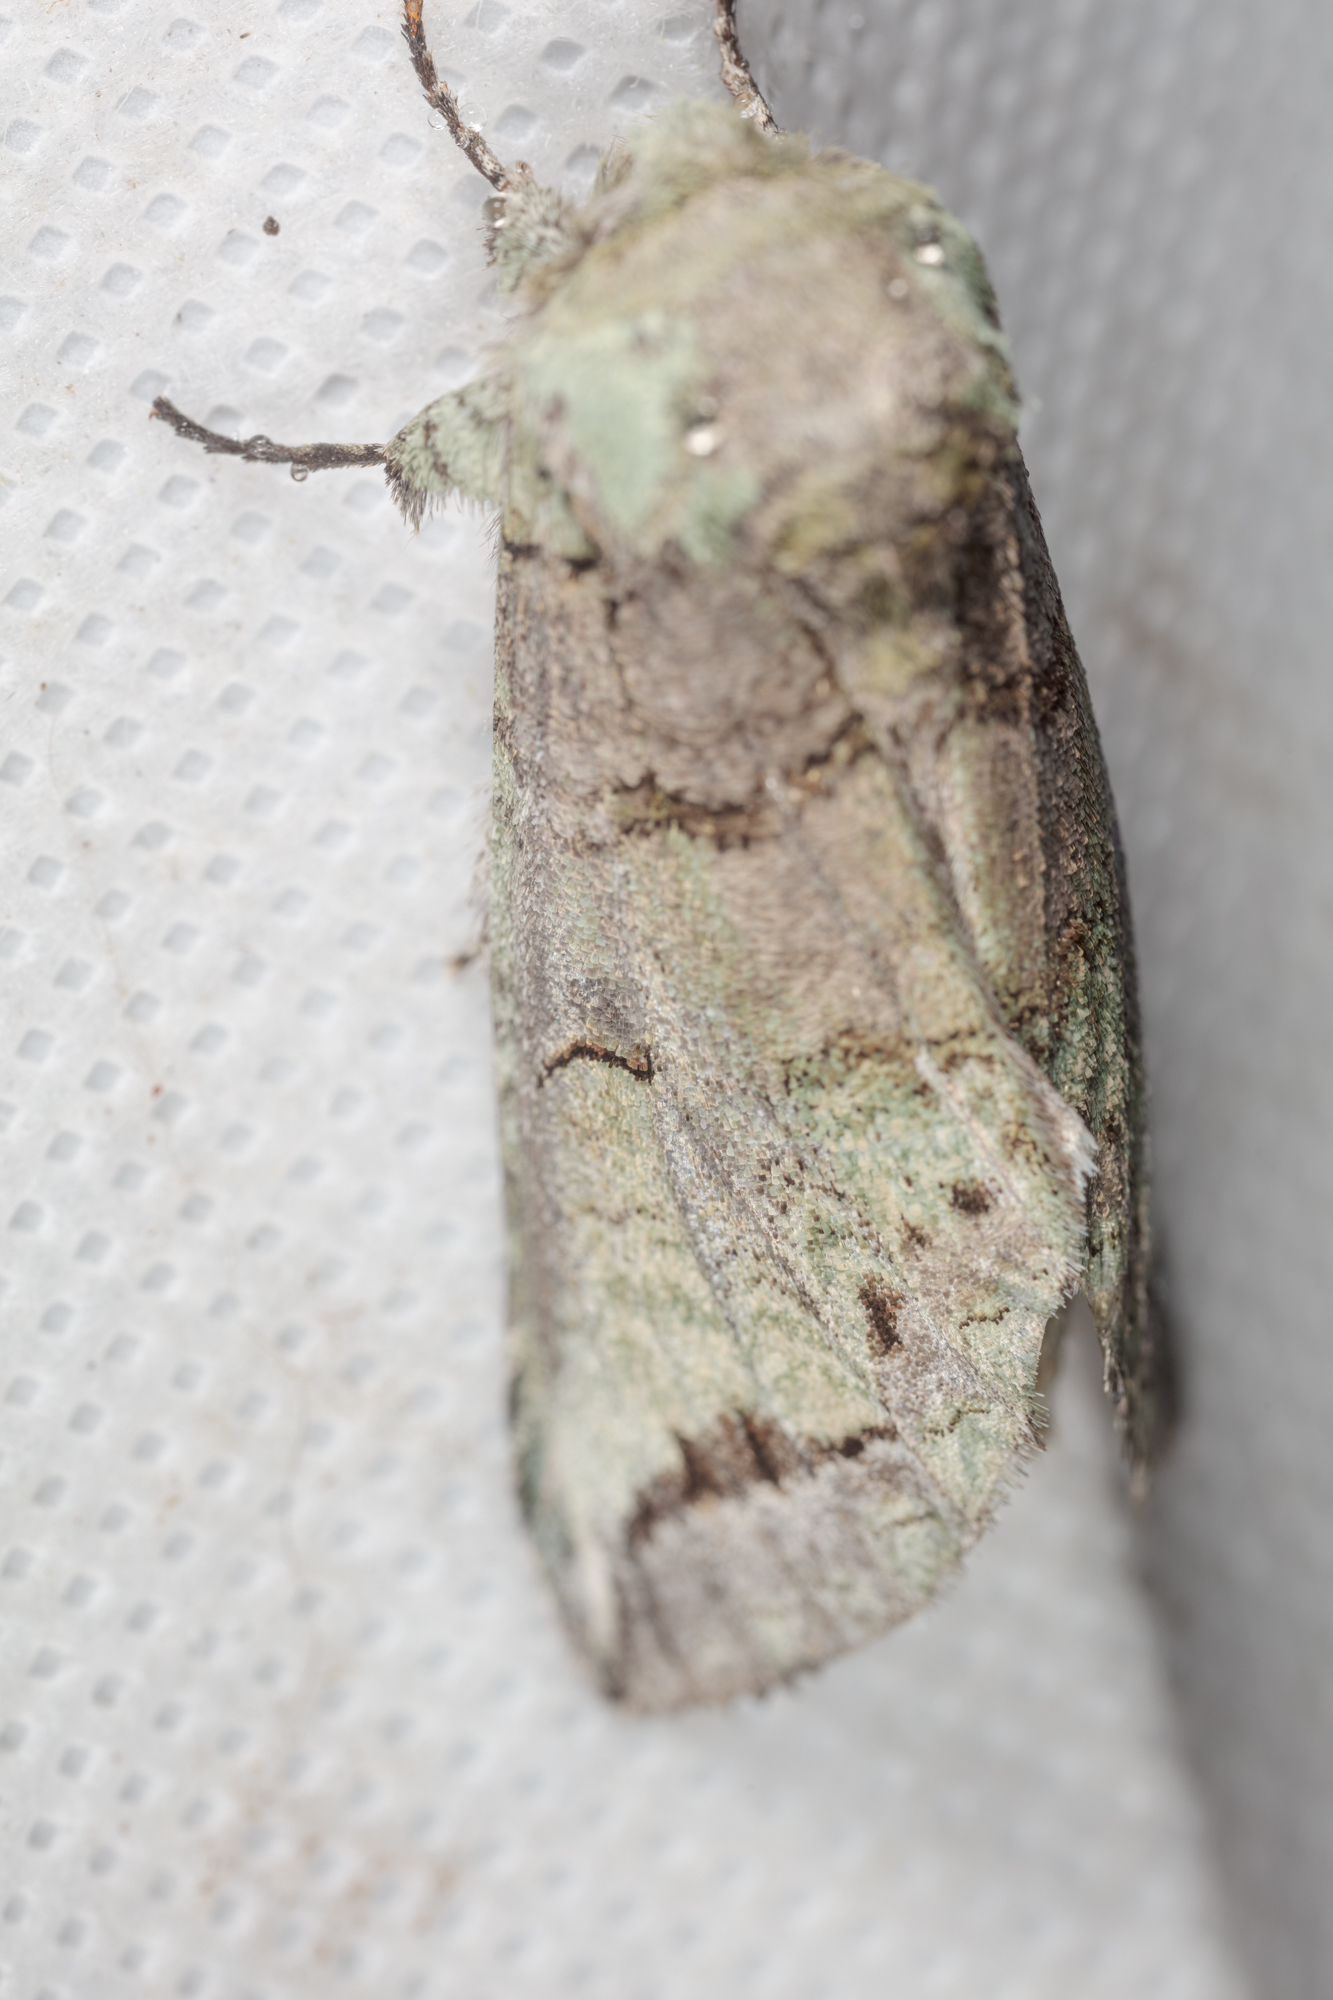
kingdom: Animalia
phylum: Arthropoda
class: Insecta
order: Lepidoptera
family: Notodontidae
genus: Heterocampa
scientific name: Heterocampa astartoides
